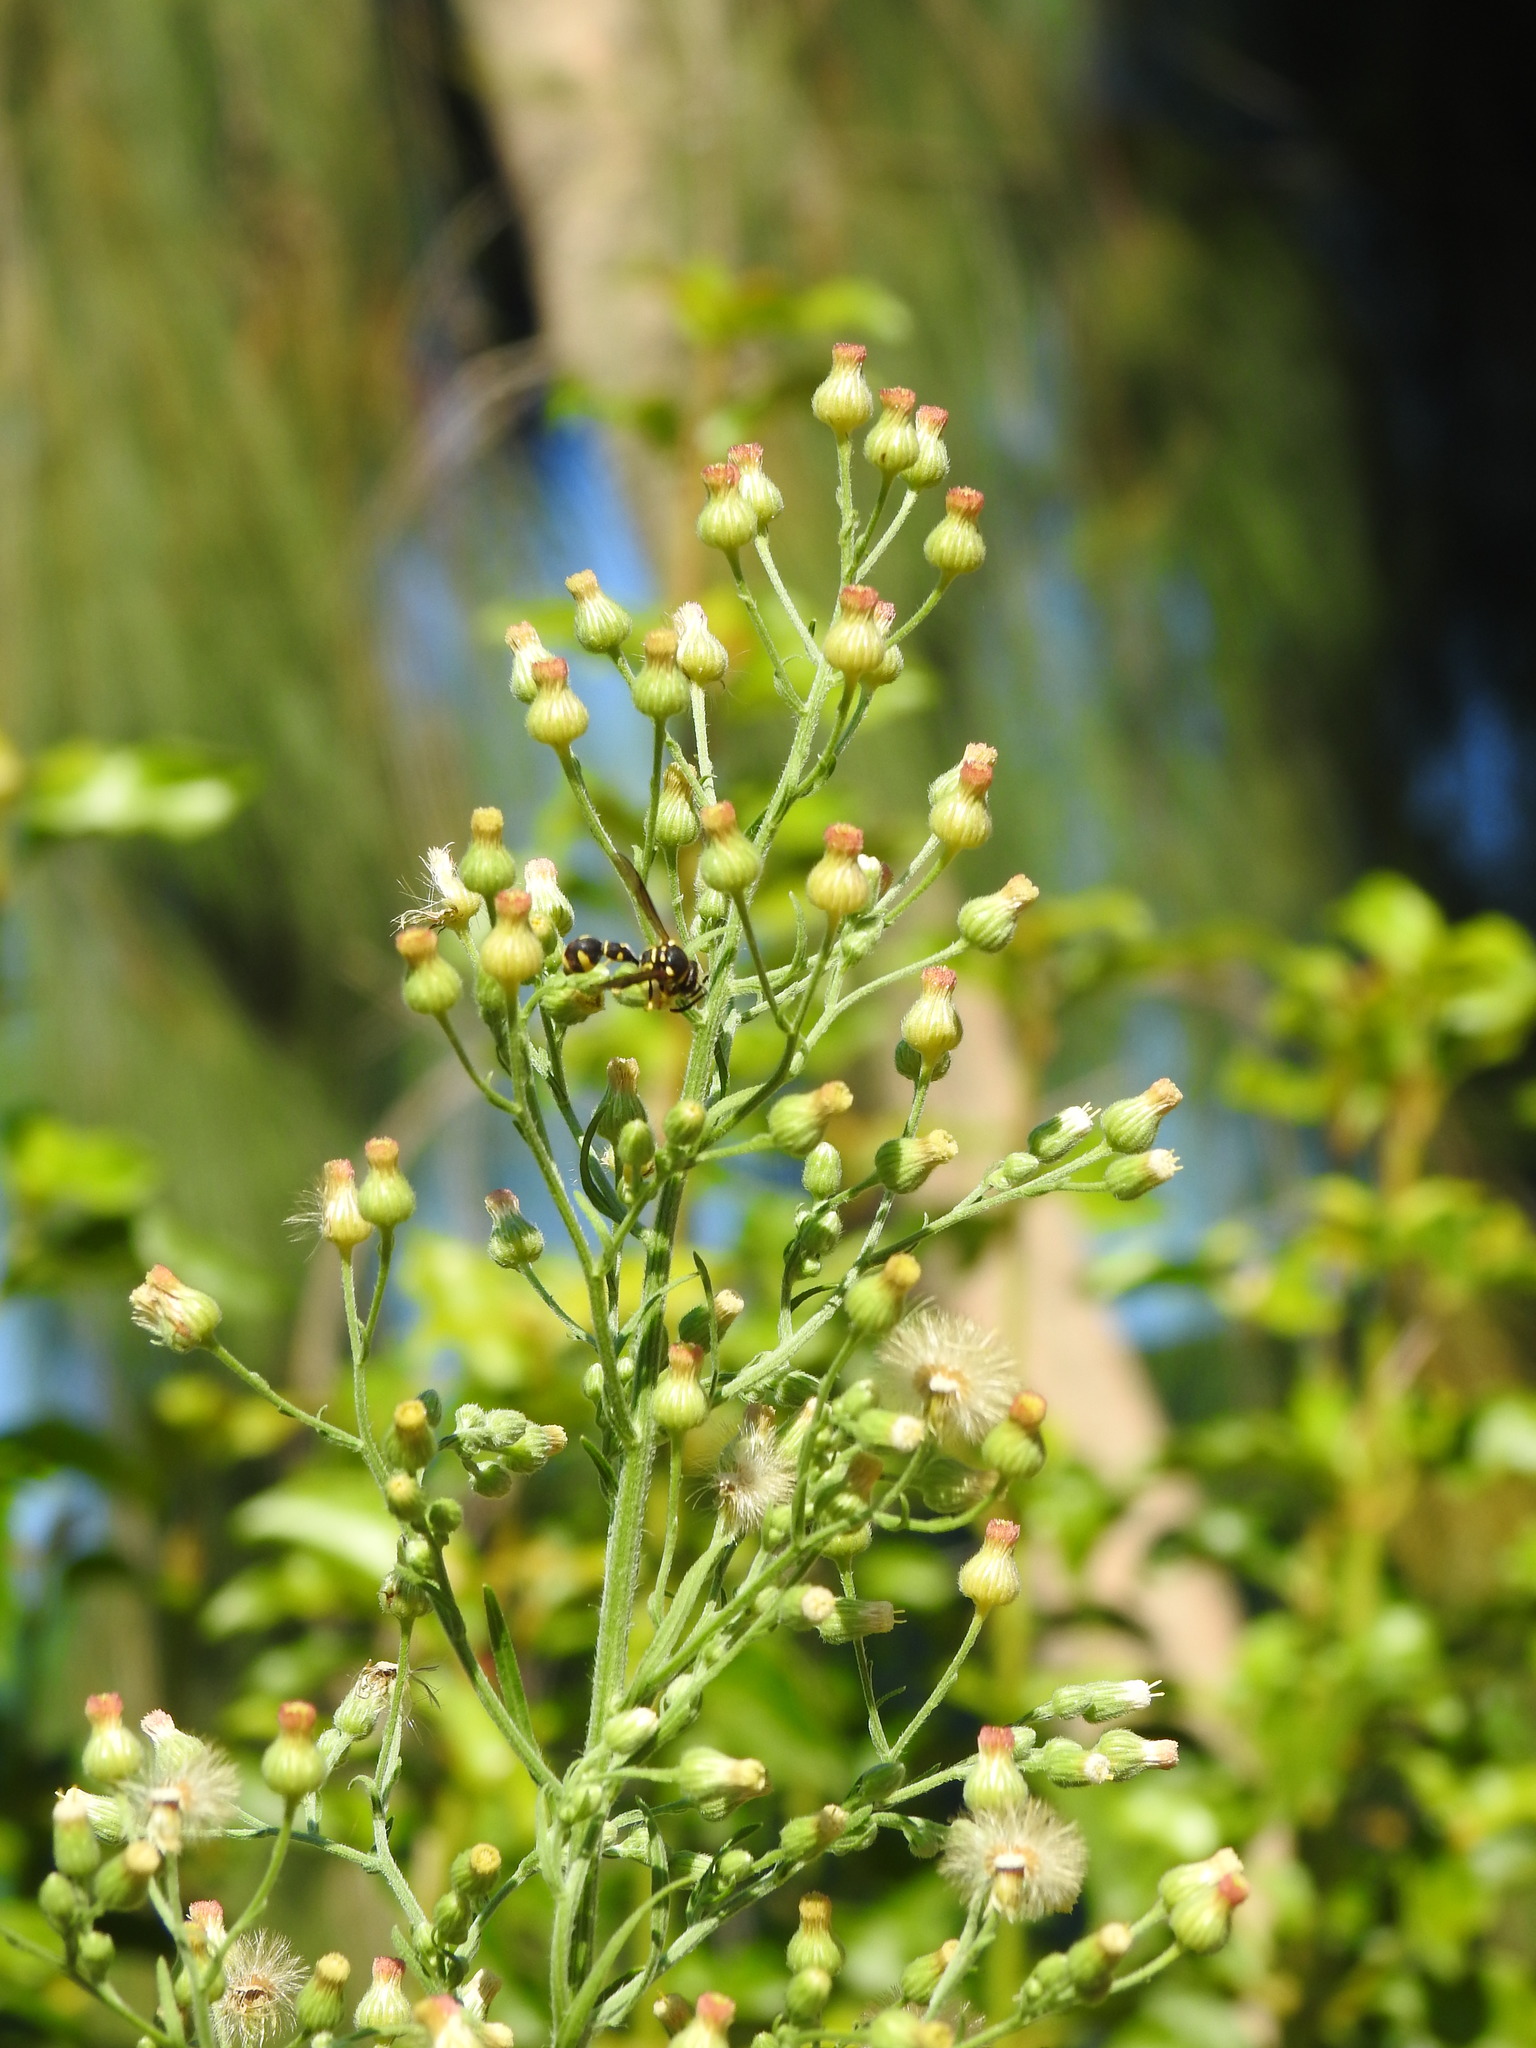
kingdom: Plantae
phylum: Tracheophyta
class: Magnoliopsida
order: Asterales
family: Asteraceae
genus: Erigeron
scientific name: Erigeron sumatrensis
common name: Daisy
